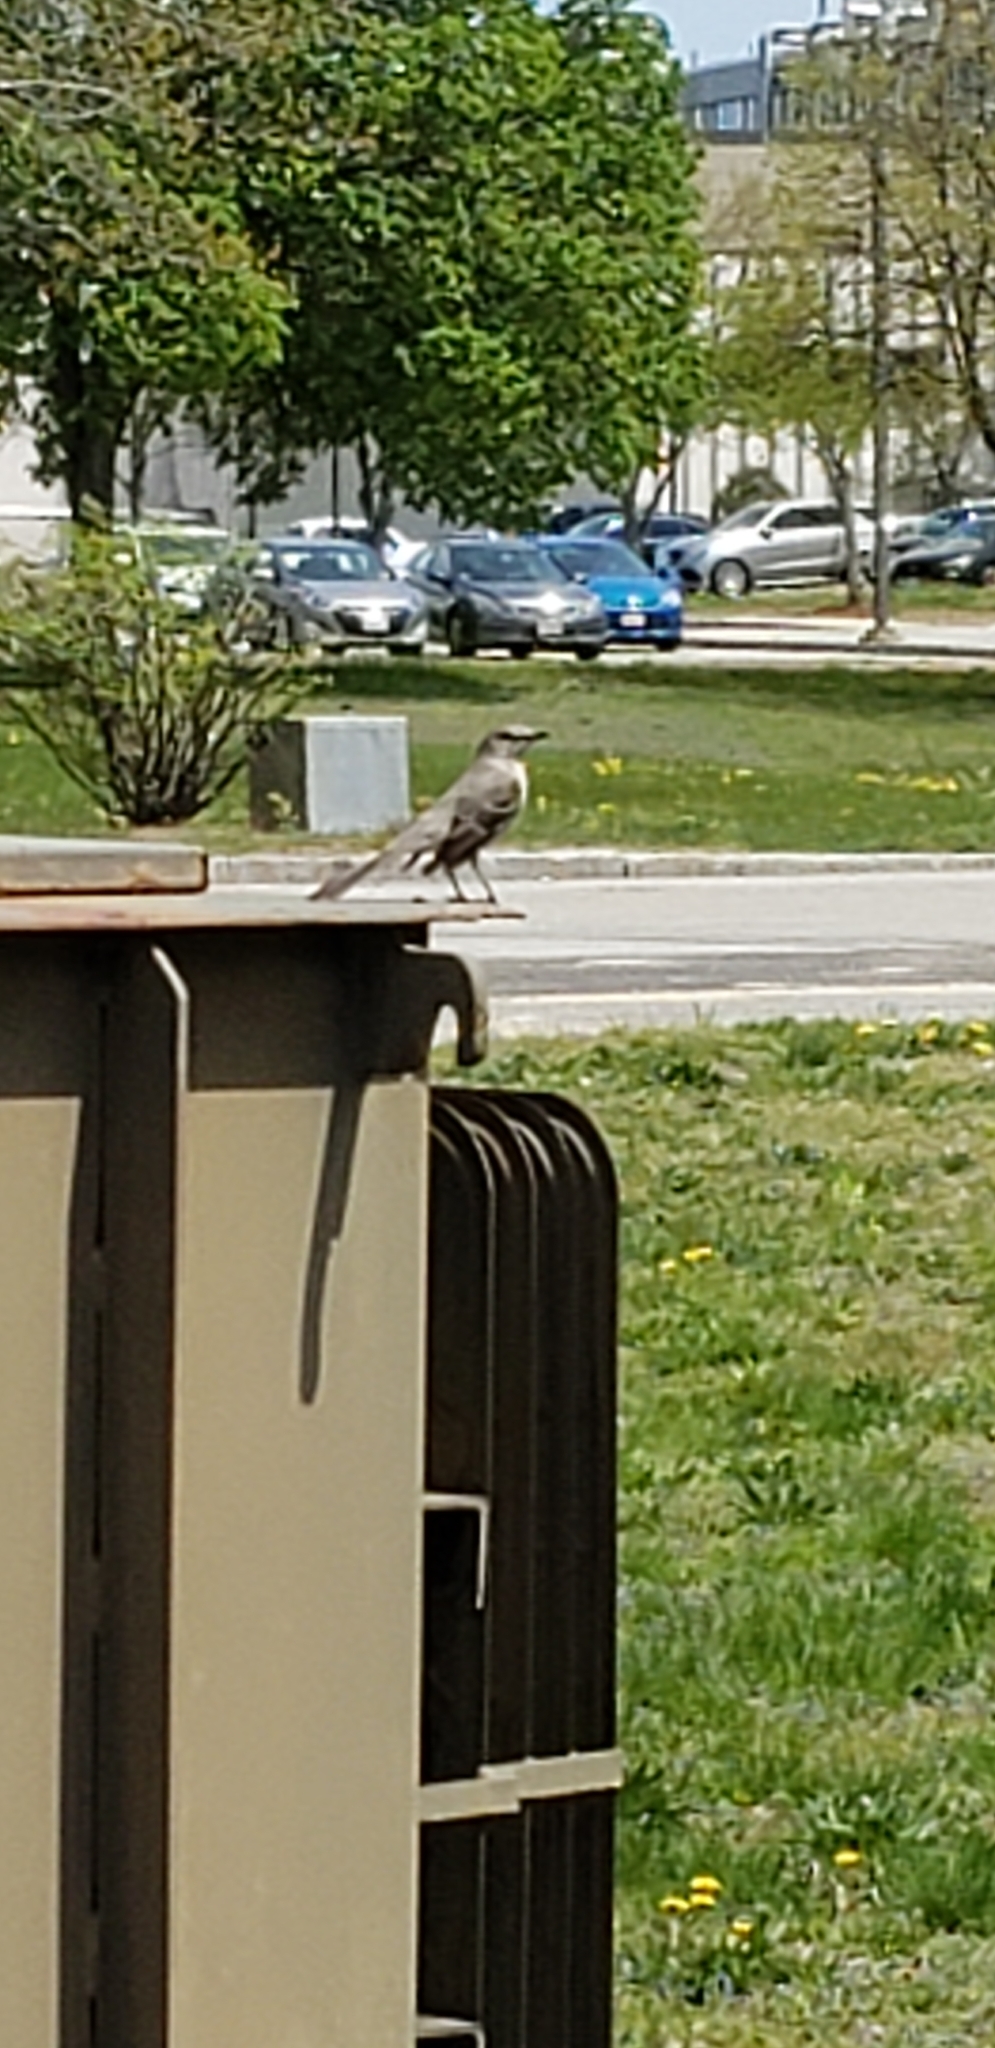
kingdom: Animalia
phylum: Chordata
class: Aves
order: Passeriformes
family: Mimidae
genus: Mimus
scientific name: Mimus polyglottos
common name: Northern mockingbird
